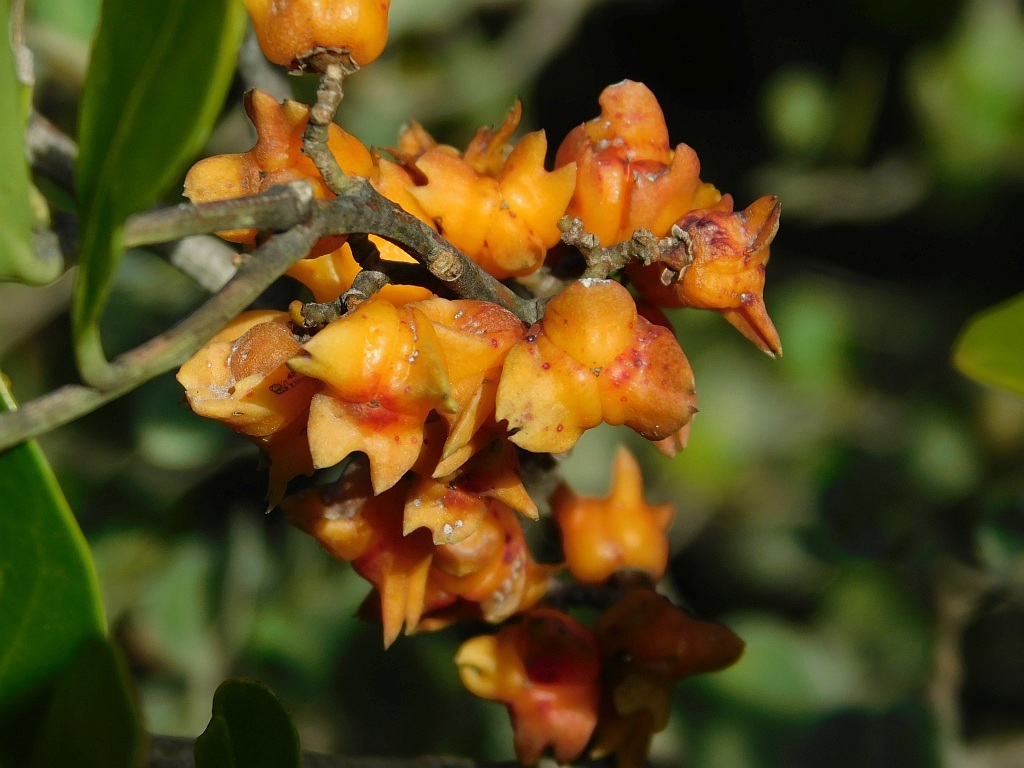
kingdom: Plantae
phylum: Tracheophyta
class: Magnoliopsida
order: Celastrales
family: Celastraceae
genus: Pterocelastrus
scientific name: Pterocelastrus tricuspidatus
